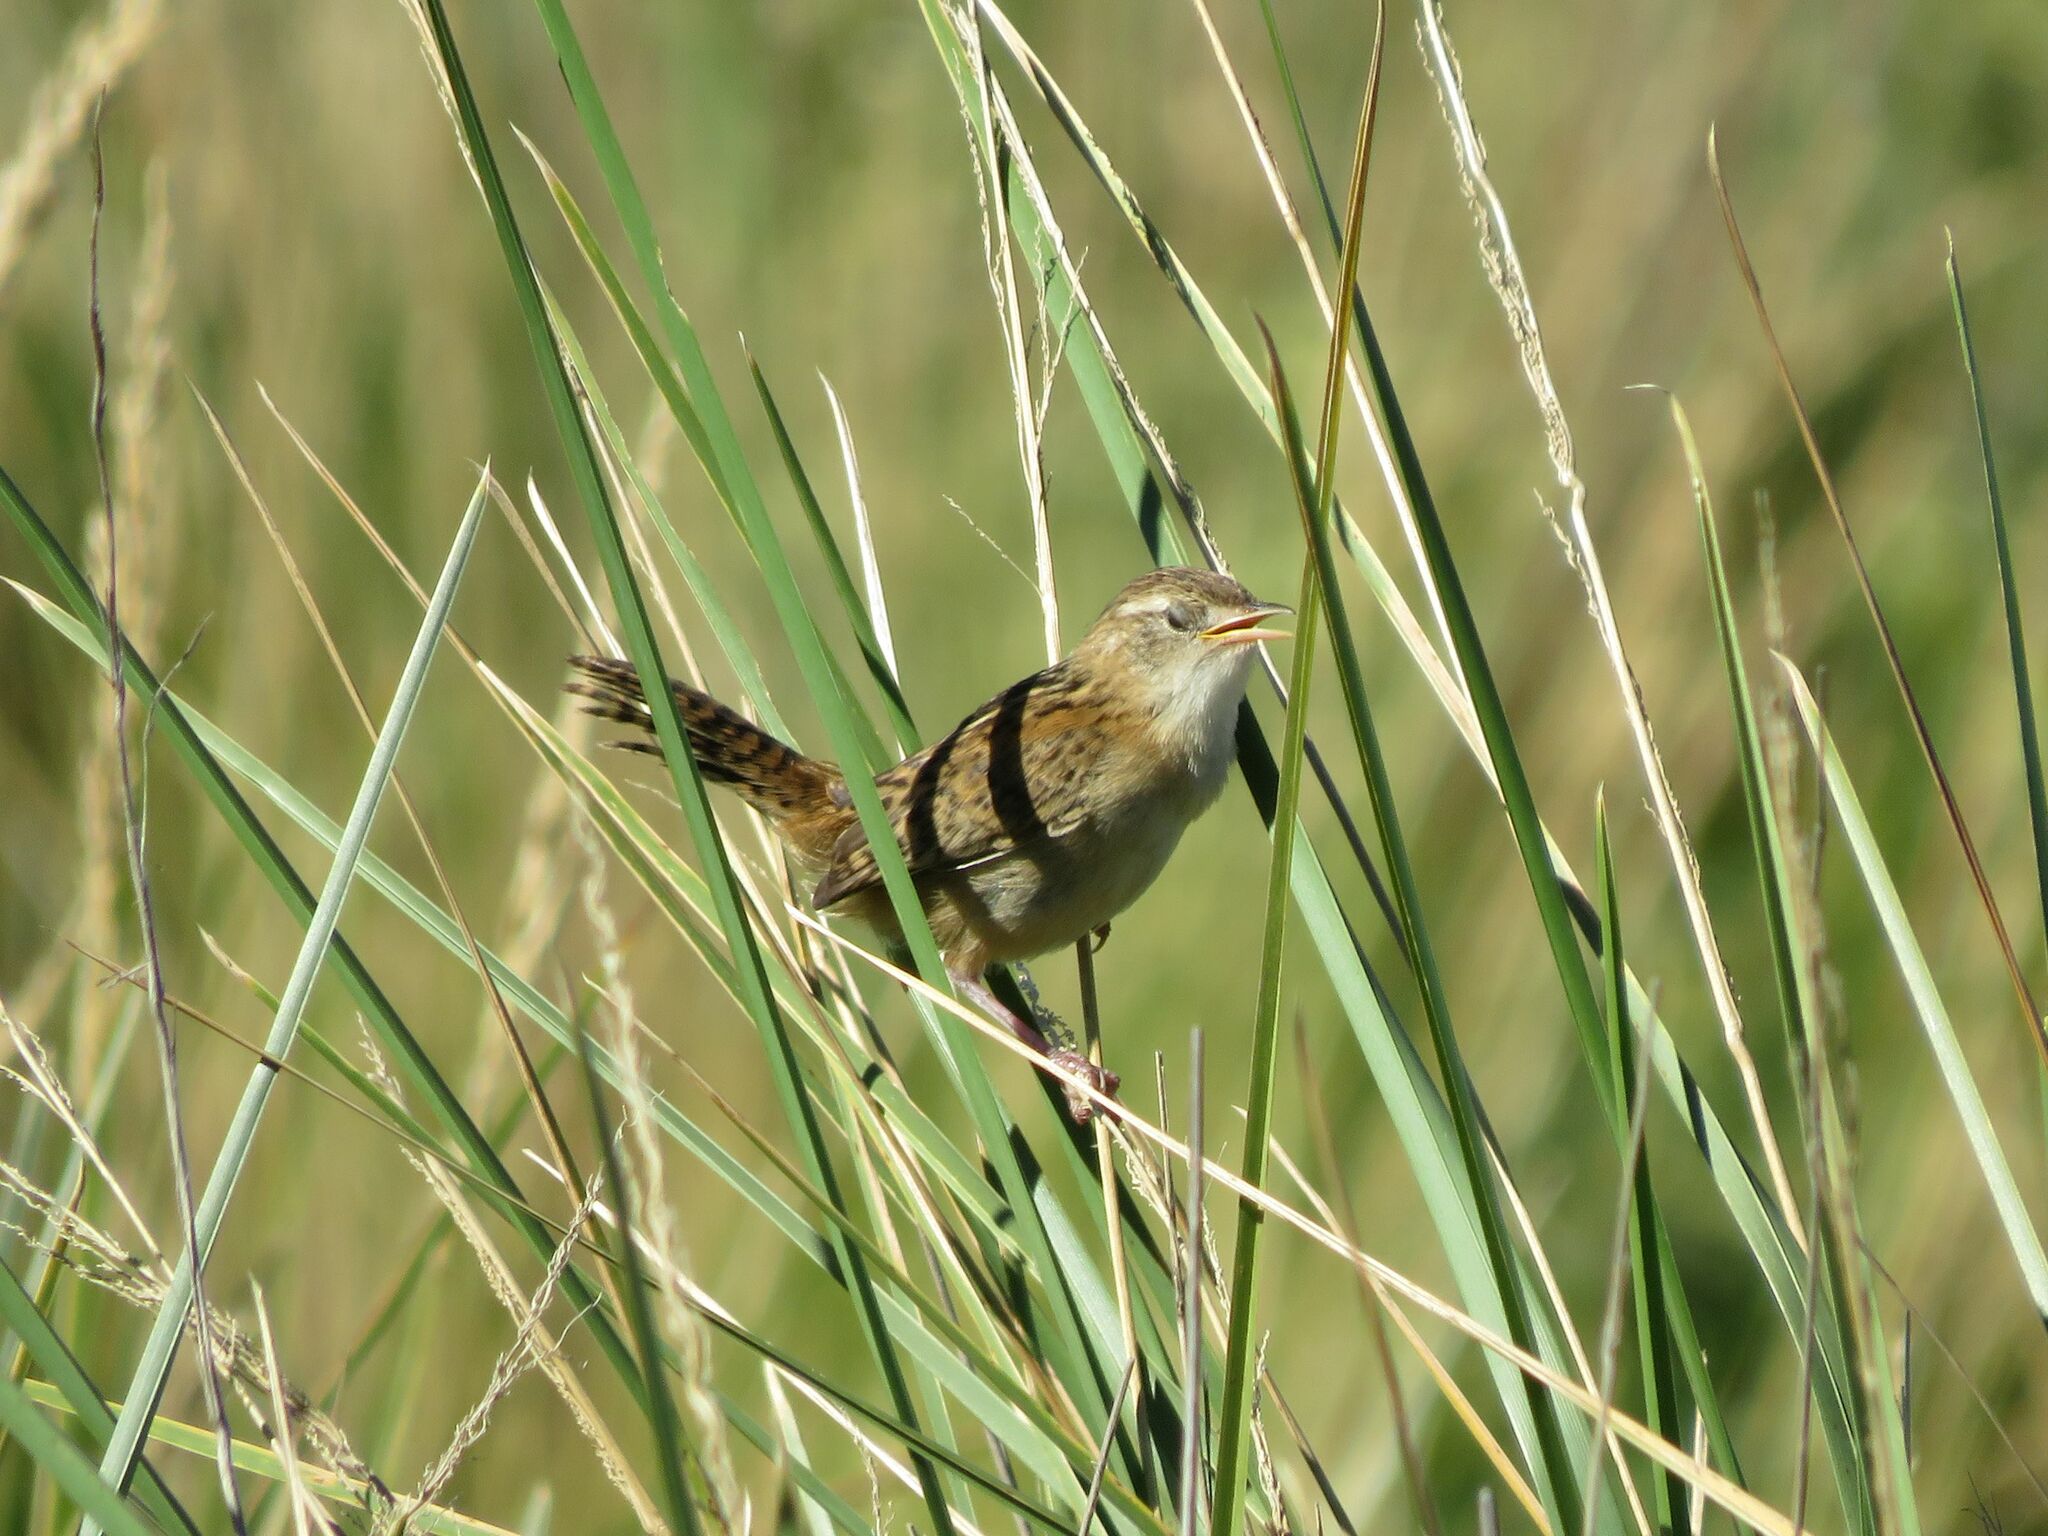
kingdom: Animalia
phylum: Chordata
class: Aves
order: Passeriformes
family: Troglodytidae
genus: Cistothorus
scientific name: Cistothorus platensis
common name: Sedge wren
